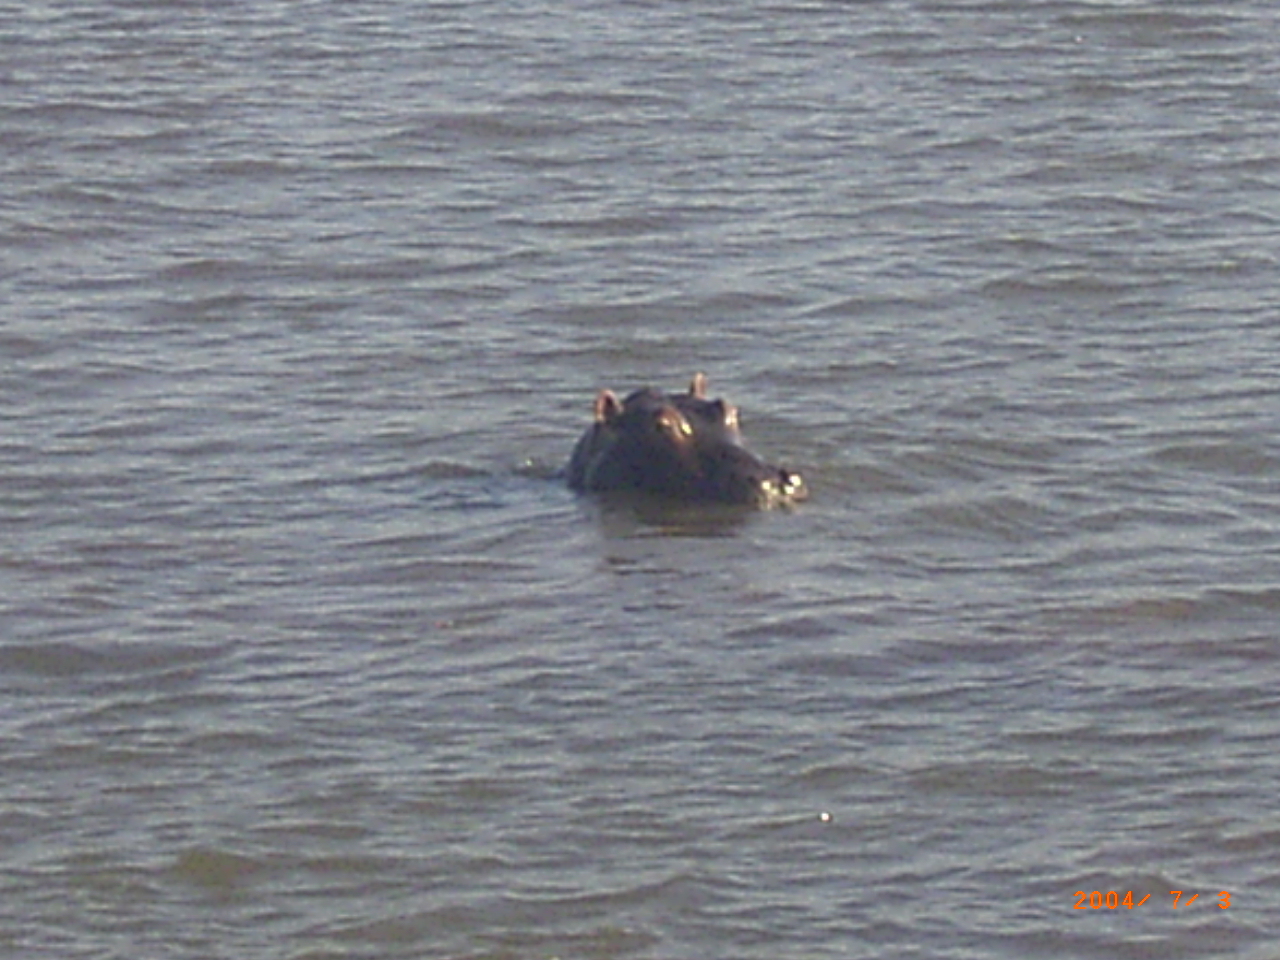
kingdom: Animalia
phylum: Chordata
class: Mammalia
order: Artiodactyla
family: Hippopotamidae
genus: Hippopotamus
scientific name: Hippopotamus amphibius
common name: Common hippopotamus
